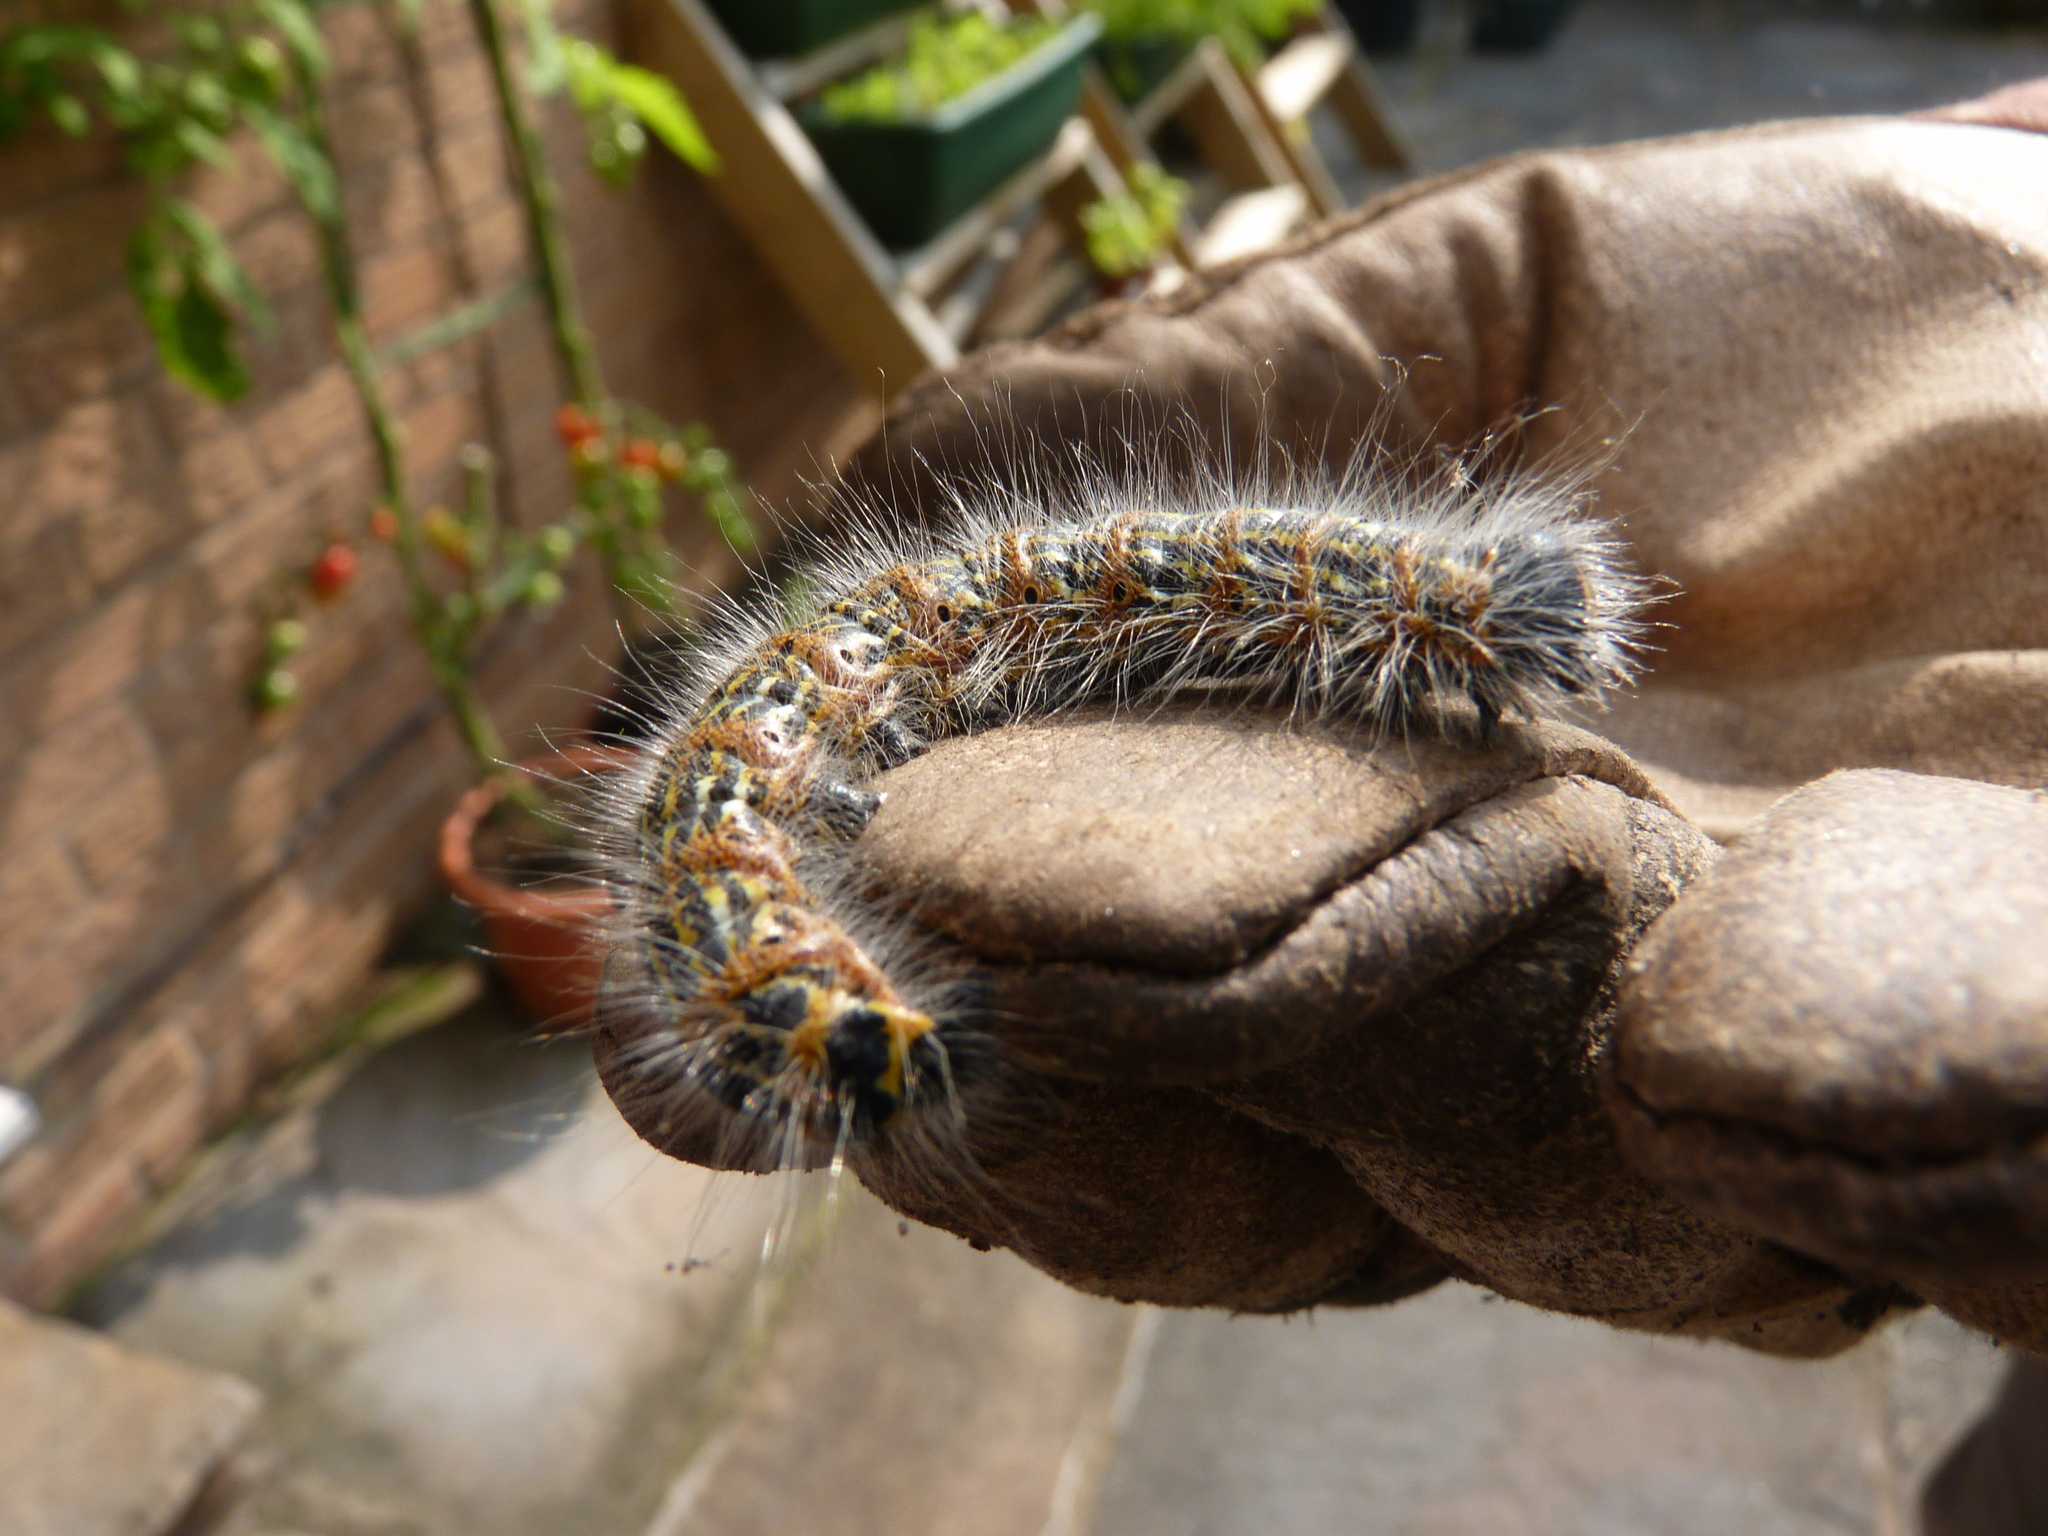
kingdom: Animalia
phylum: Arthropoda
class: Insecta
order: Lepidoptera
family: Notodontidae
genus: Phalera
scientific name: Phalera bucephala
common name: Buff-tip
